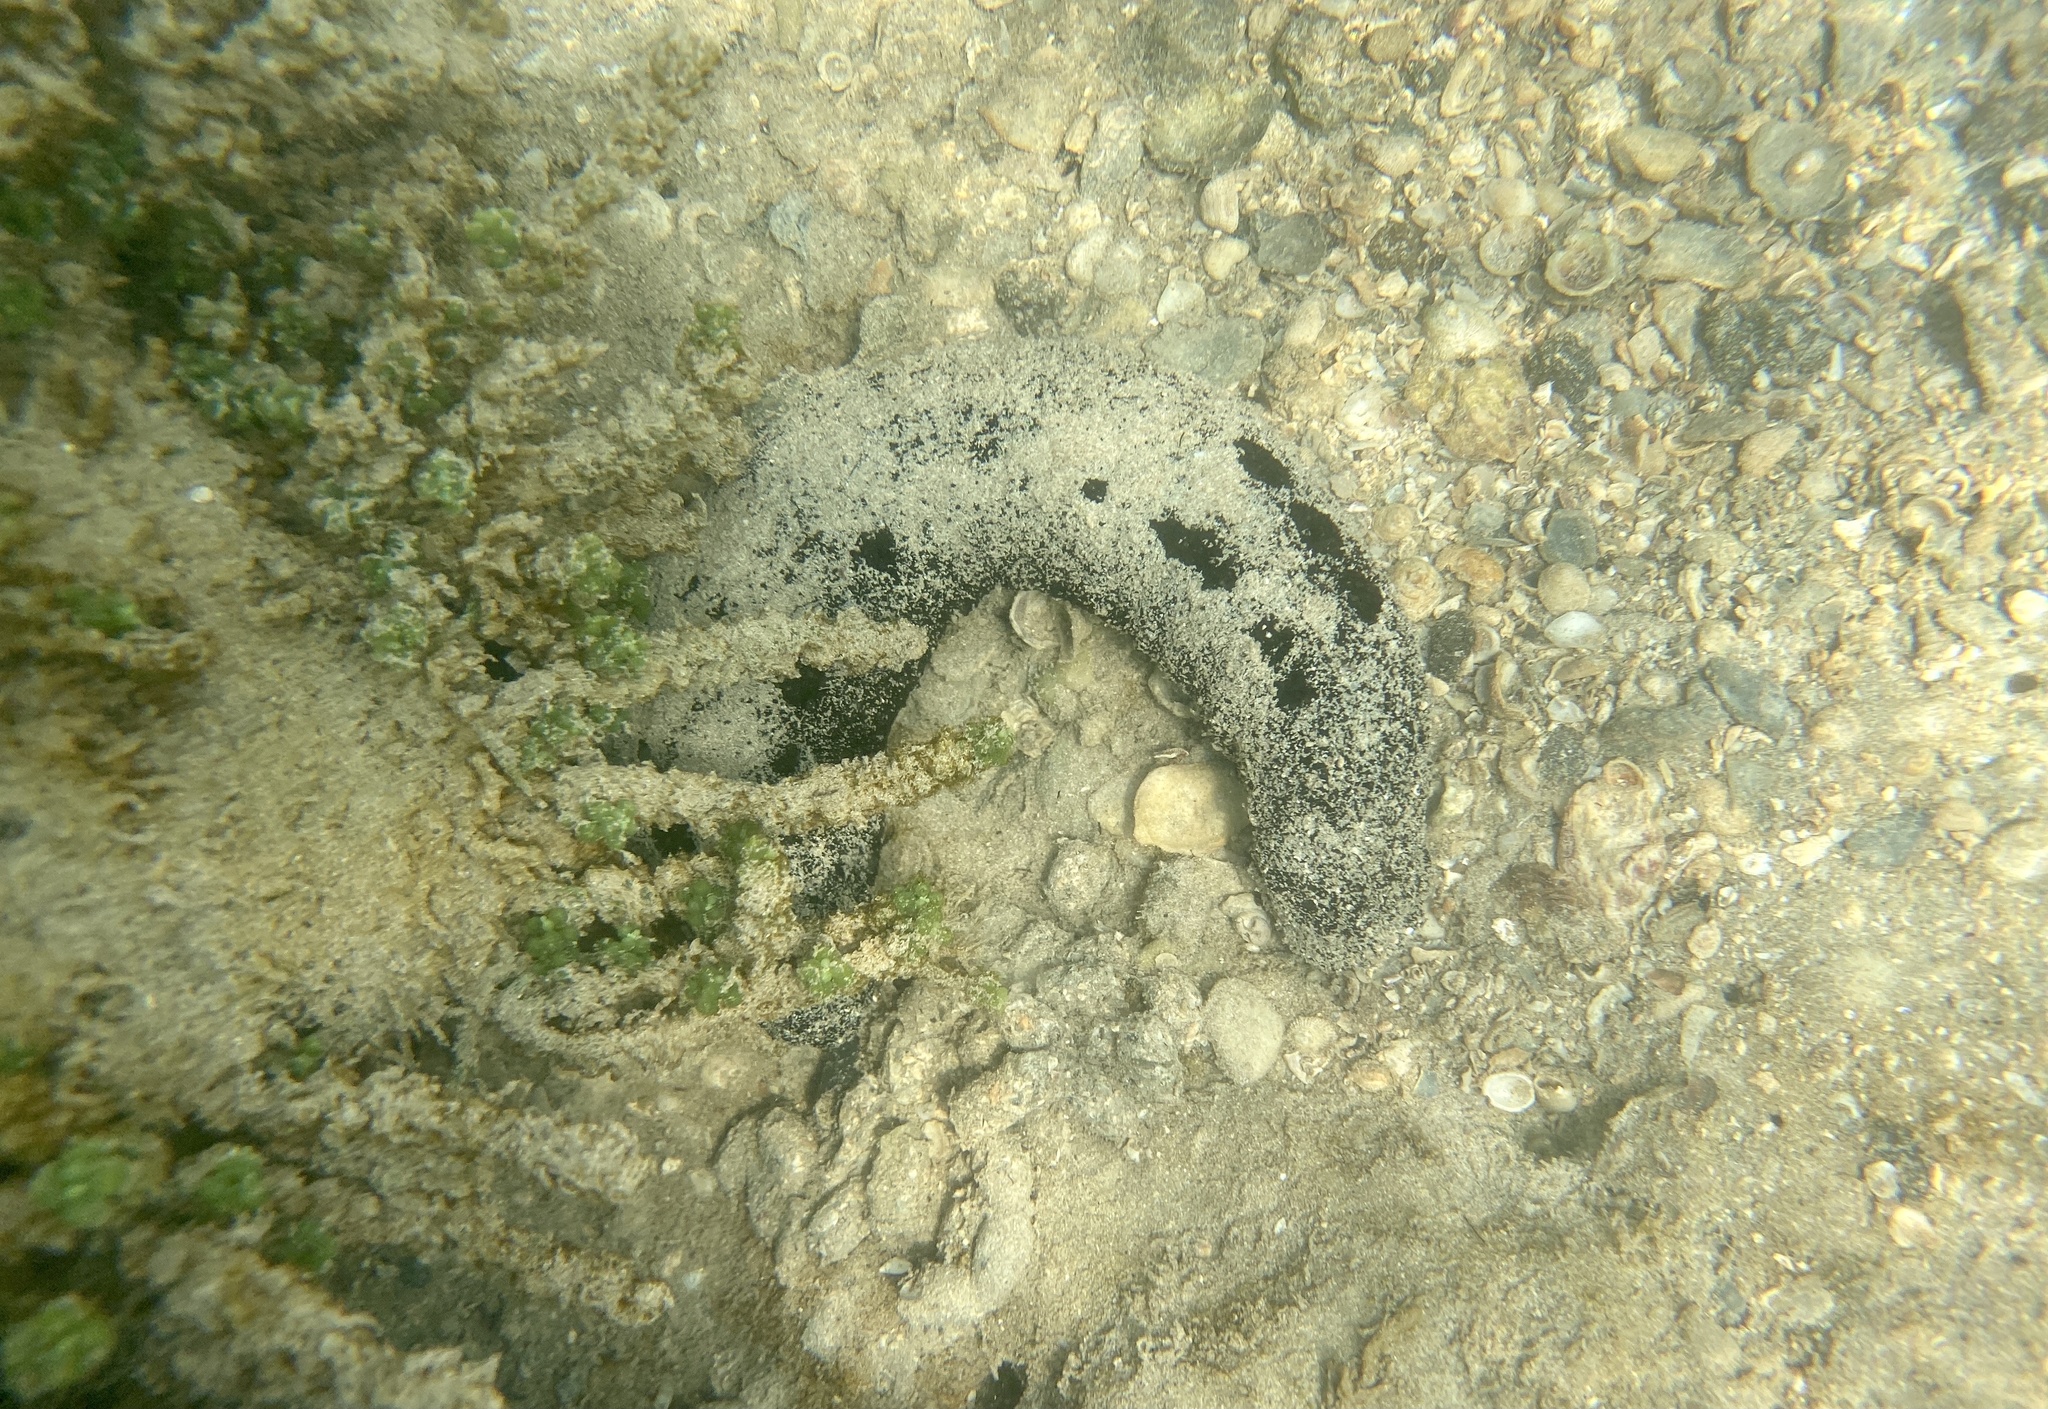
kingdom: Animalia
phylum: Echinodermata
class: Holothuroidea
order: Holothuriida
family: Holothuriidae
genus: Holothuria
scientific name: Holothuria atra
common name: Lollyfish
